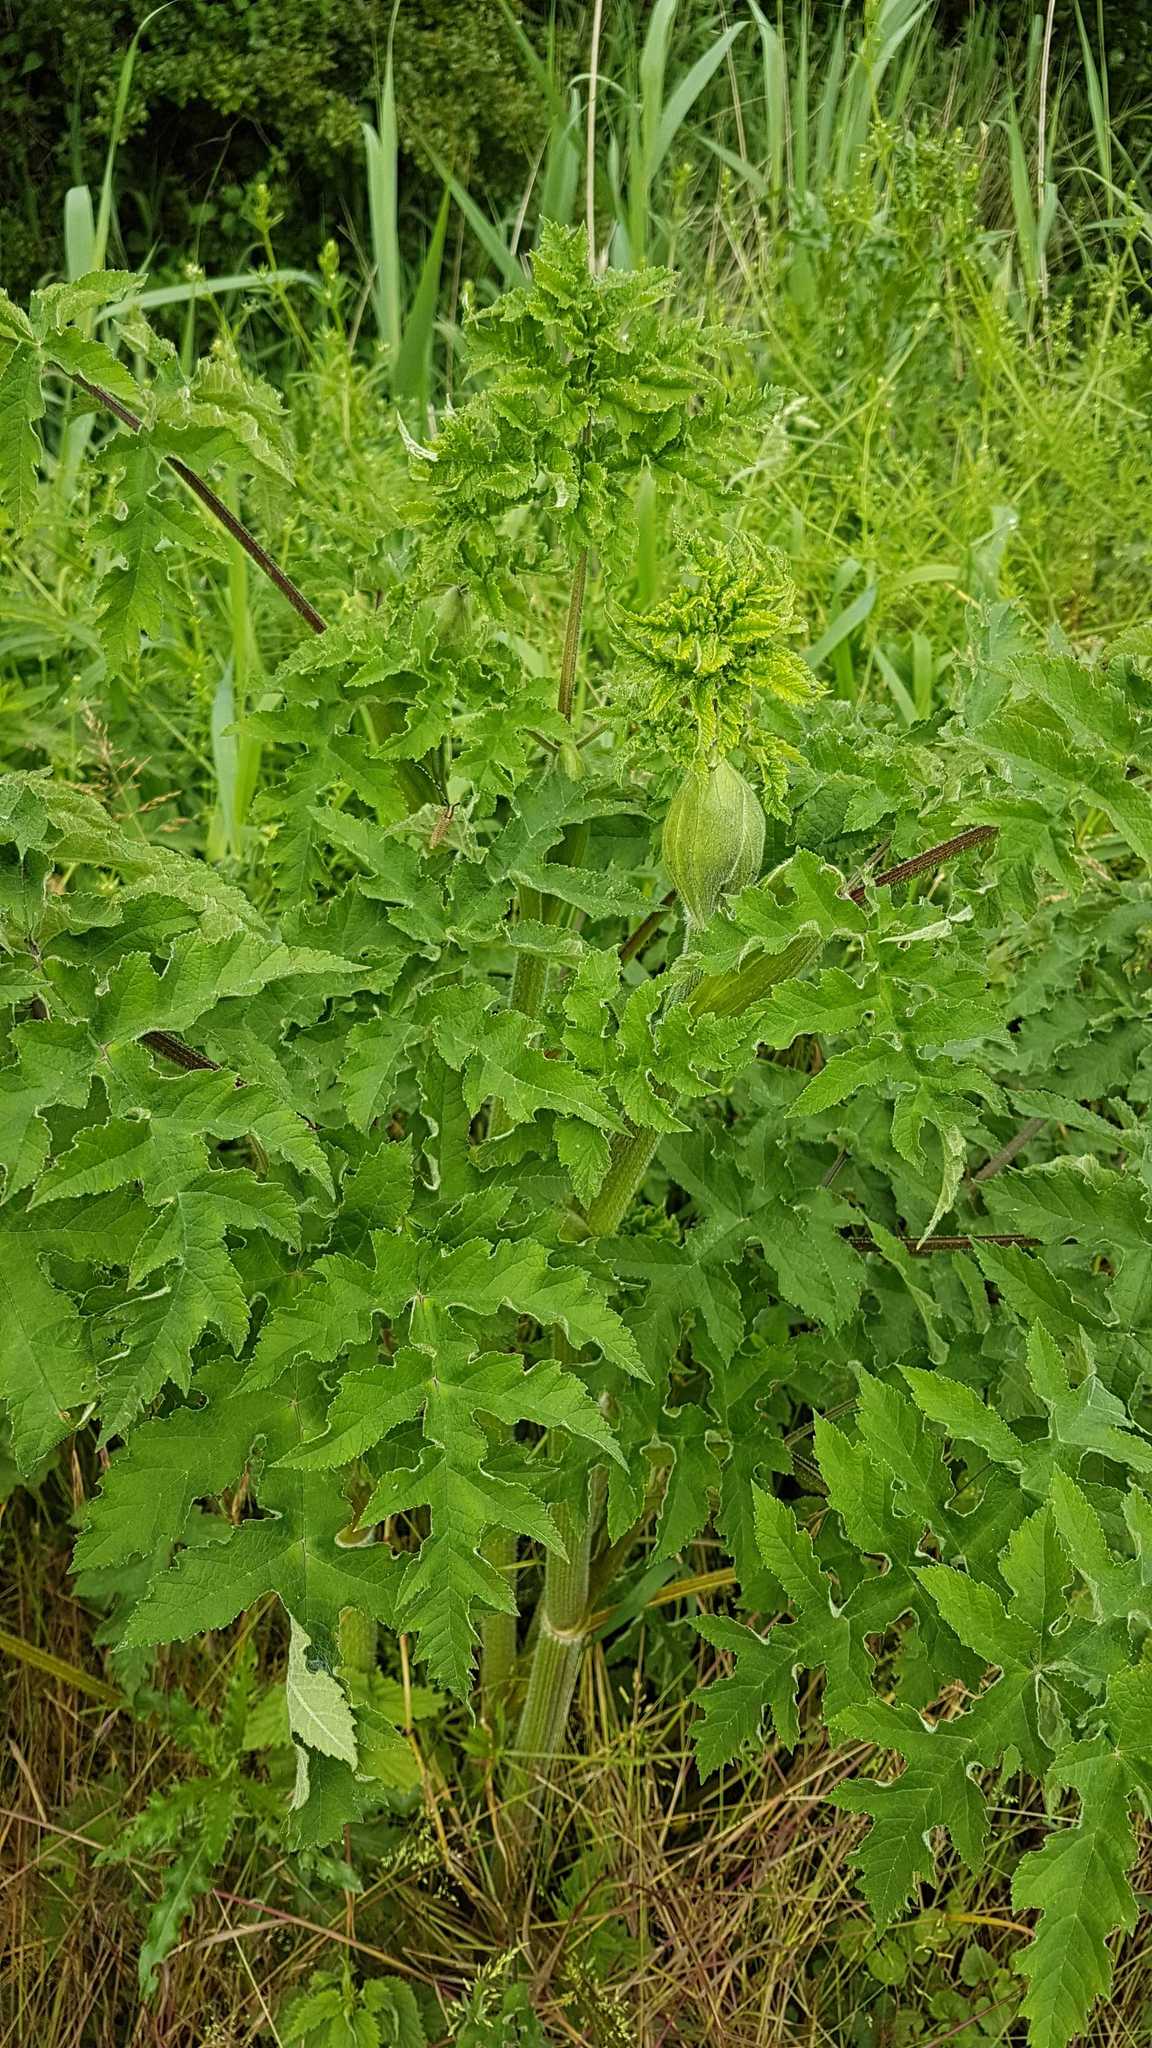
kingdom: Plantae
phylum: Tracheophyta
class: Magnoliopsida
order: Apiales
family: Apiaceae
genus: Heracleum
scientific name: Heracleum mantegazzianum
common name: Giant hogweed
